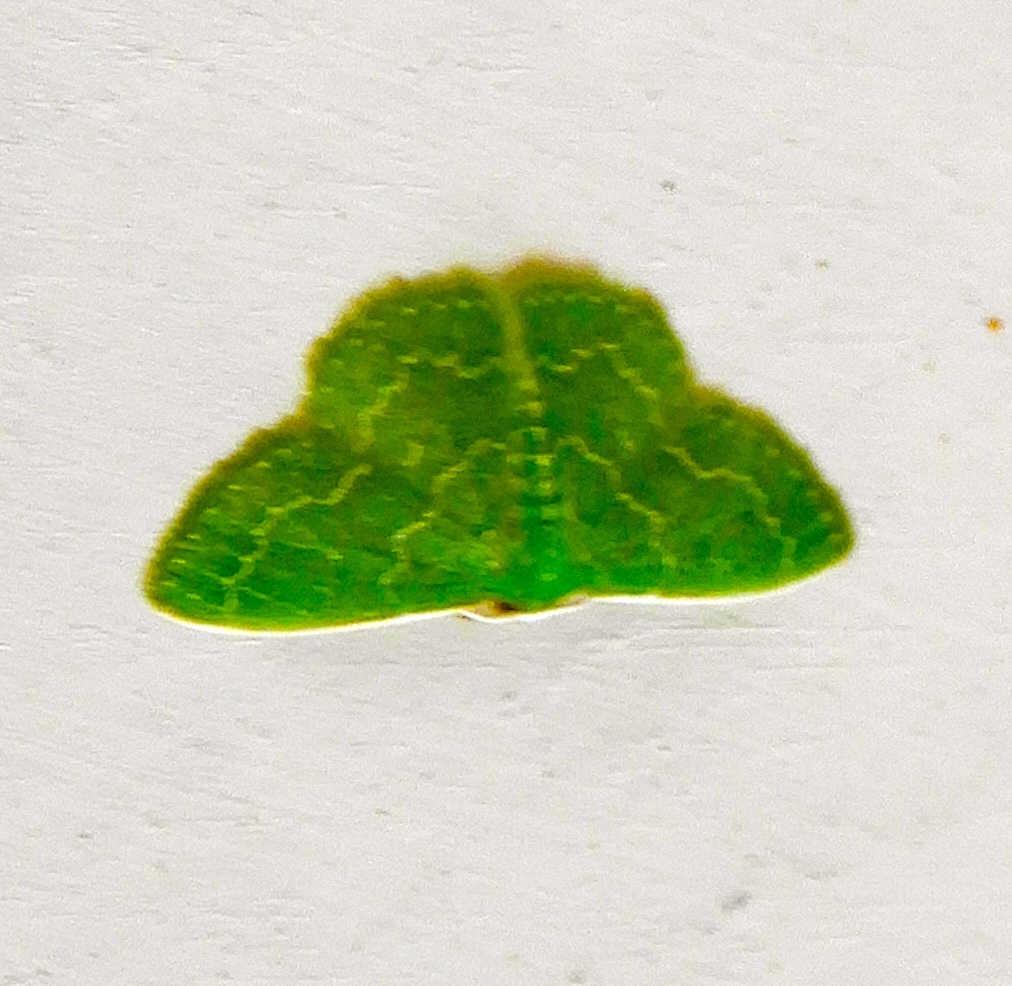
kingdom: Animalia
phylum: Arthropoda
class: Insecta
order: Lepidoptera
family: Geometridae
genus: Synchlora
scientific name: Synchlora frondaria
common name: Southern emerald
